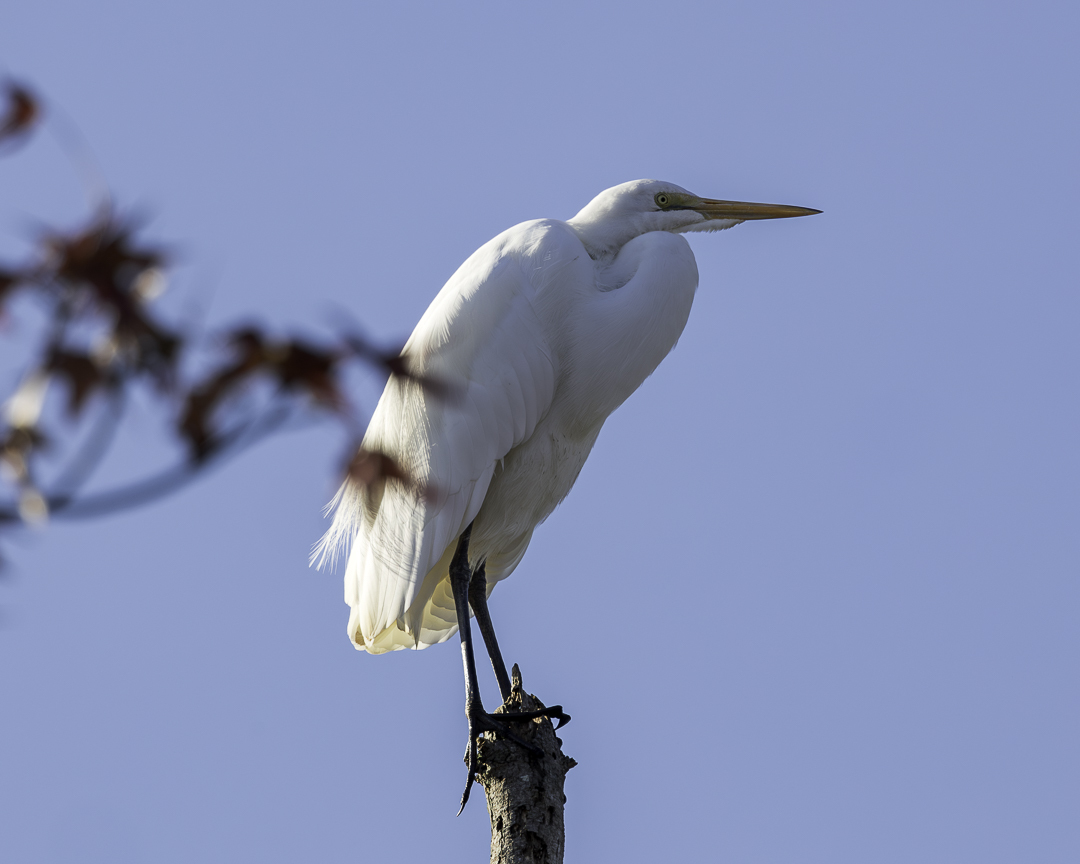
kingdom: Animalia
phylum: Chordata
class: Aves
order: Pelecaniformes
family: Ardeidae
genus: Ardea
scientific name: Ardea alba
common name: Great egret
